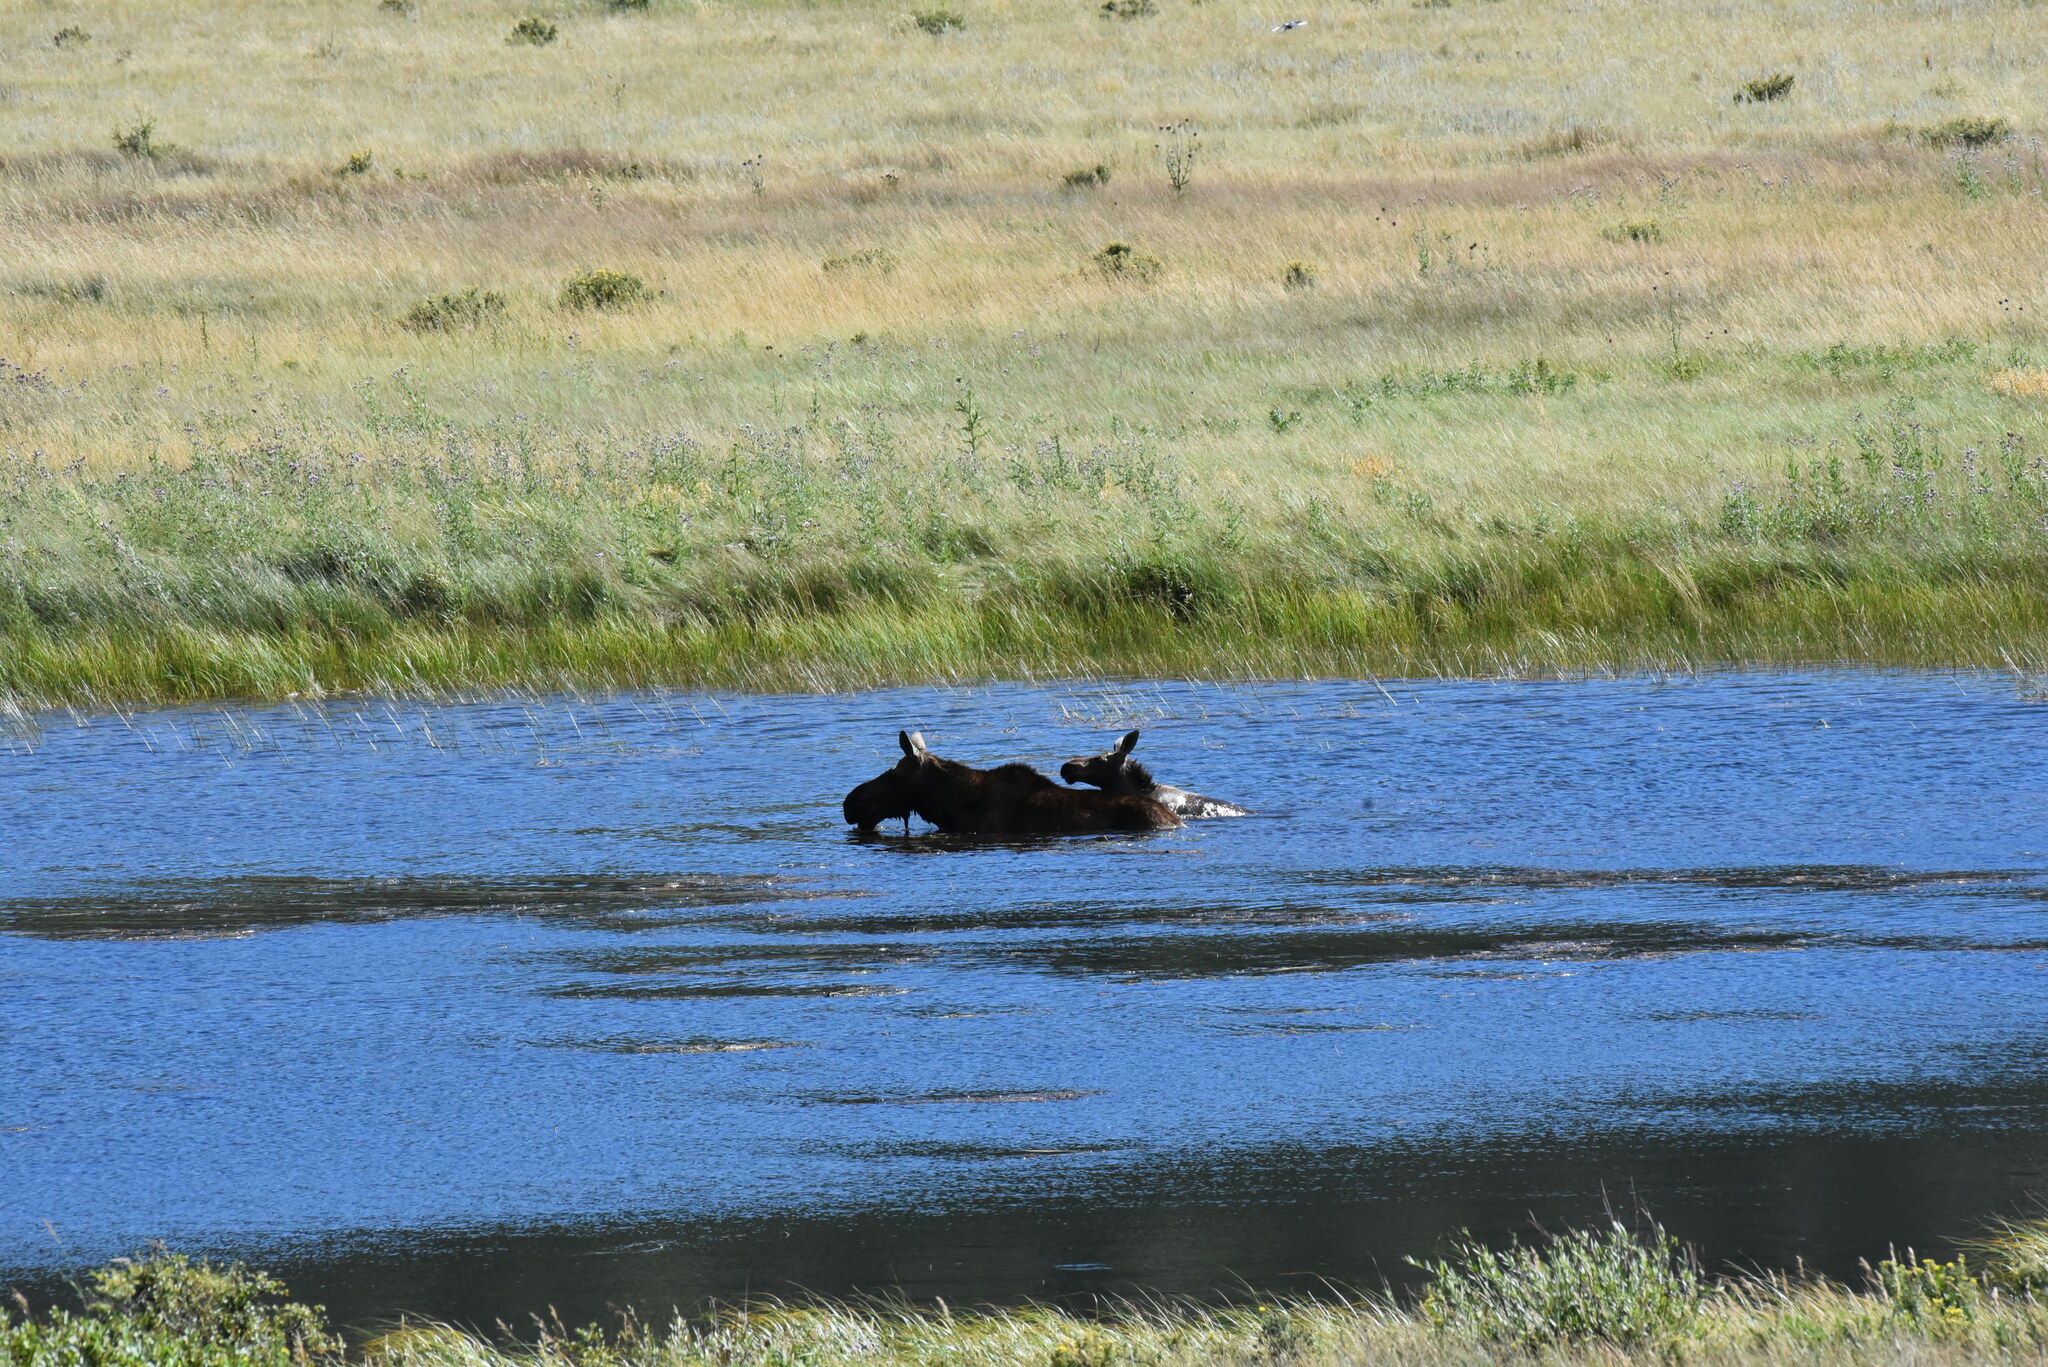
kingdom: Animalia
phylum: Chordata
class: Mammalia
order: Artiodactyla
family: Cervidae
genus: Alces
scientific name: Alces alces
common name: Moose
